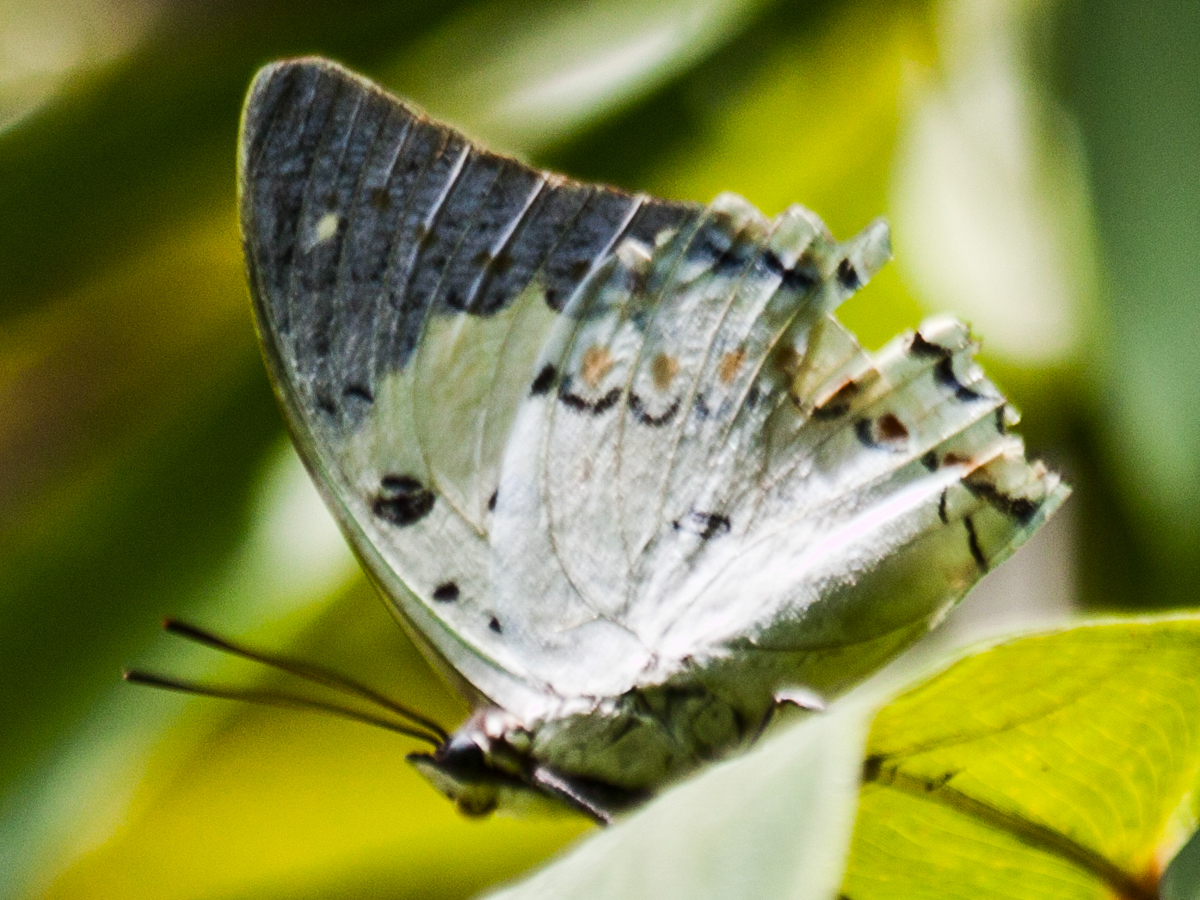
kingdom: Animalia
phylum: Arthropoda
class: Insecta
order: Lepidoptera
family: Nymphalidae
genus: Polyura
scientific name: Polyura delphis
